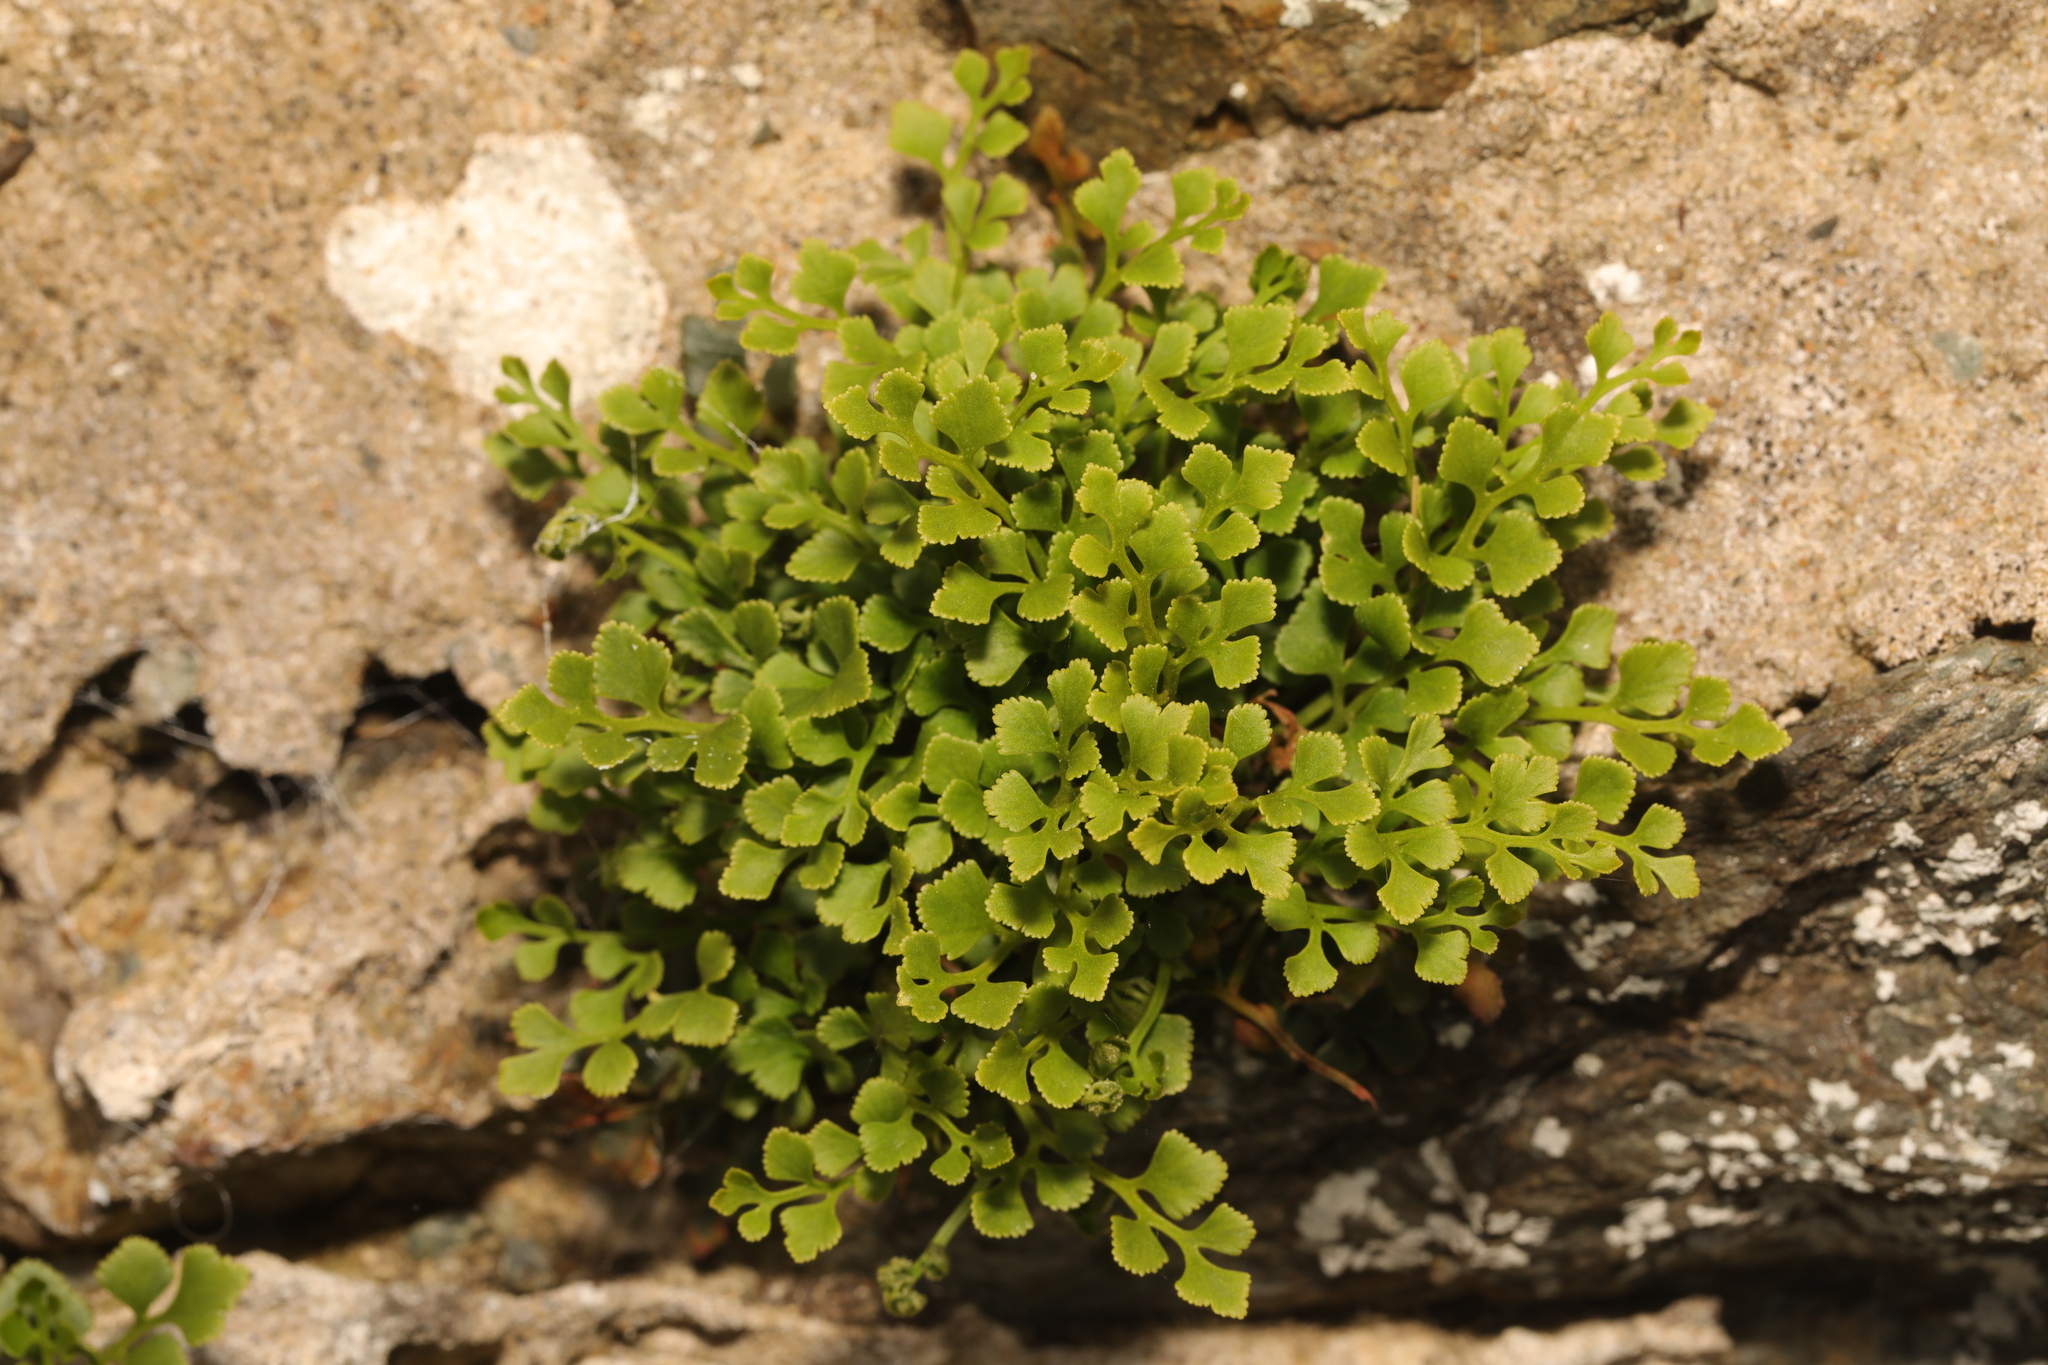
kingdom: Plantae
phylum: Tracheophyta
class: Polypodiopsida
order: Polypodiales
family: Aspleniaceae
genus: Asplenium
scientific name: Asplenium ruta-muraria
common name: Wall-rue
